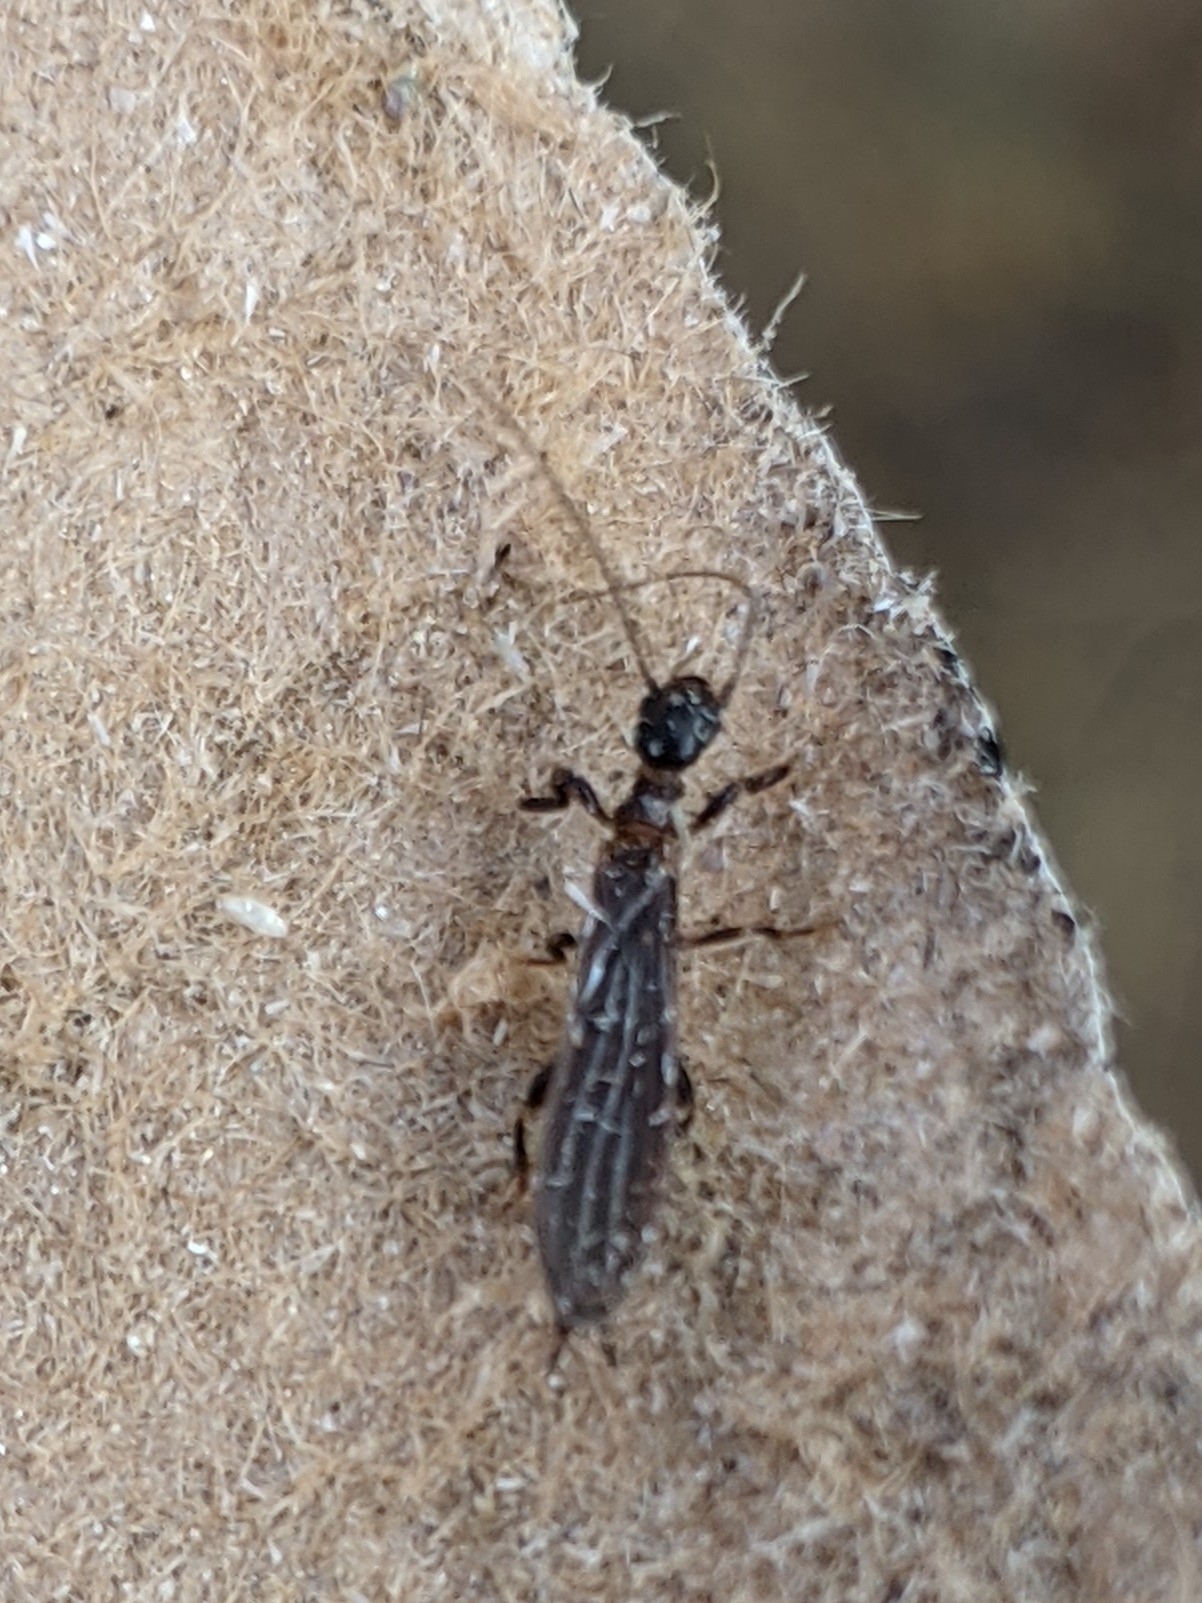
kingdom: Animalia
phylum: Arthropoda
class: Insecta
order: Embioptera
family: Oligotomidae
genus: Oligotoma
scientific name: Oligotoma nigra
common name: Black webspinner
